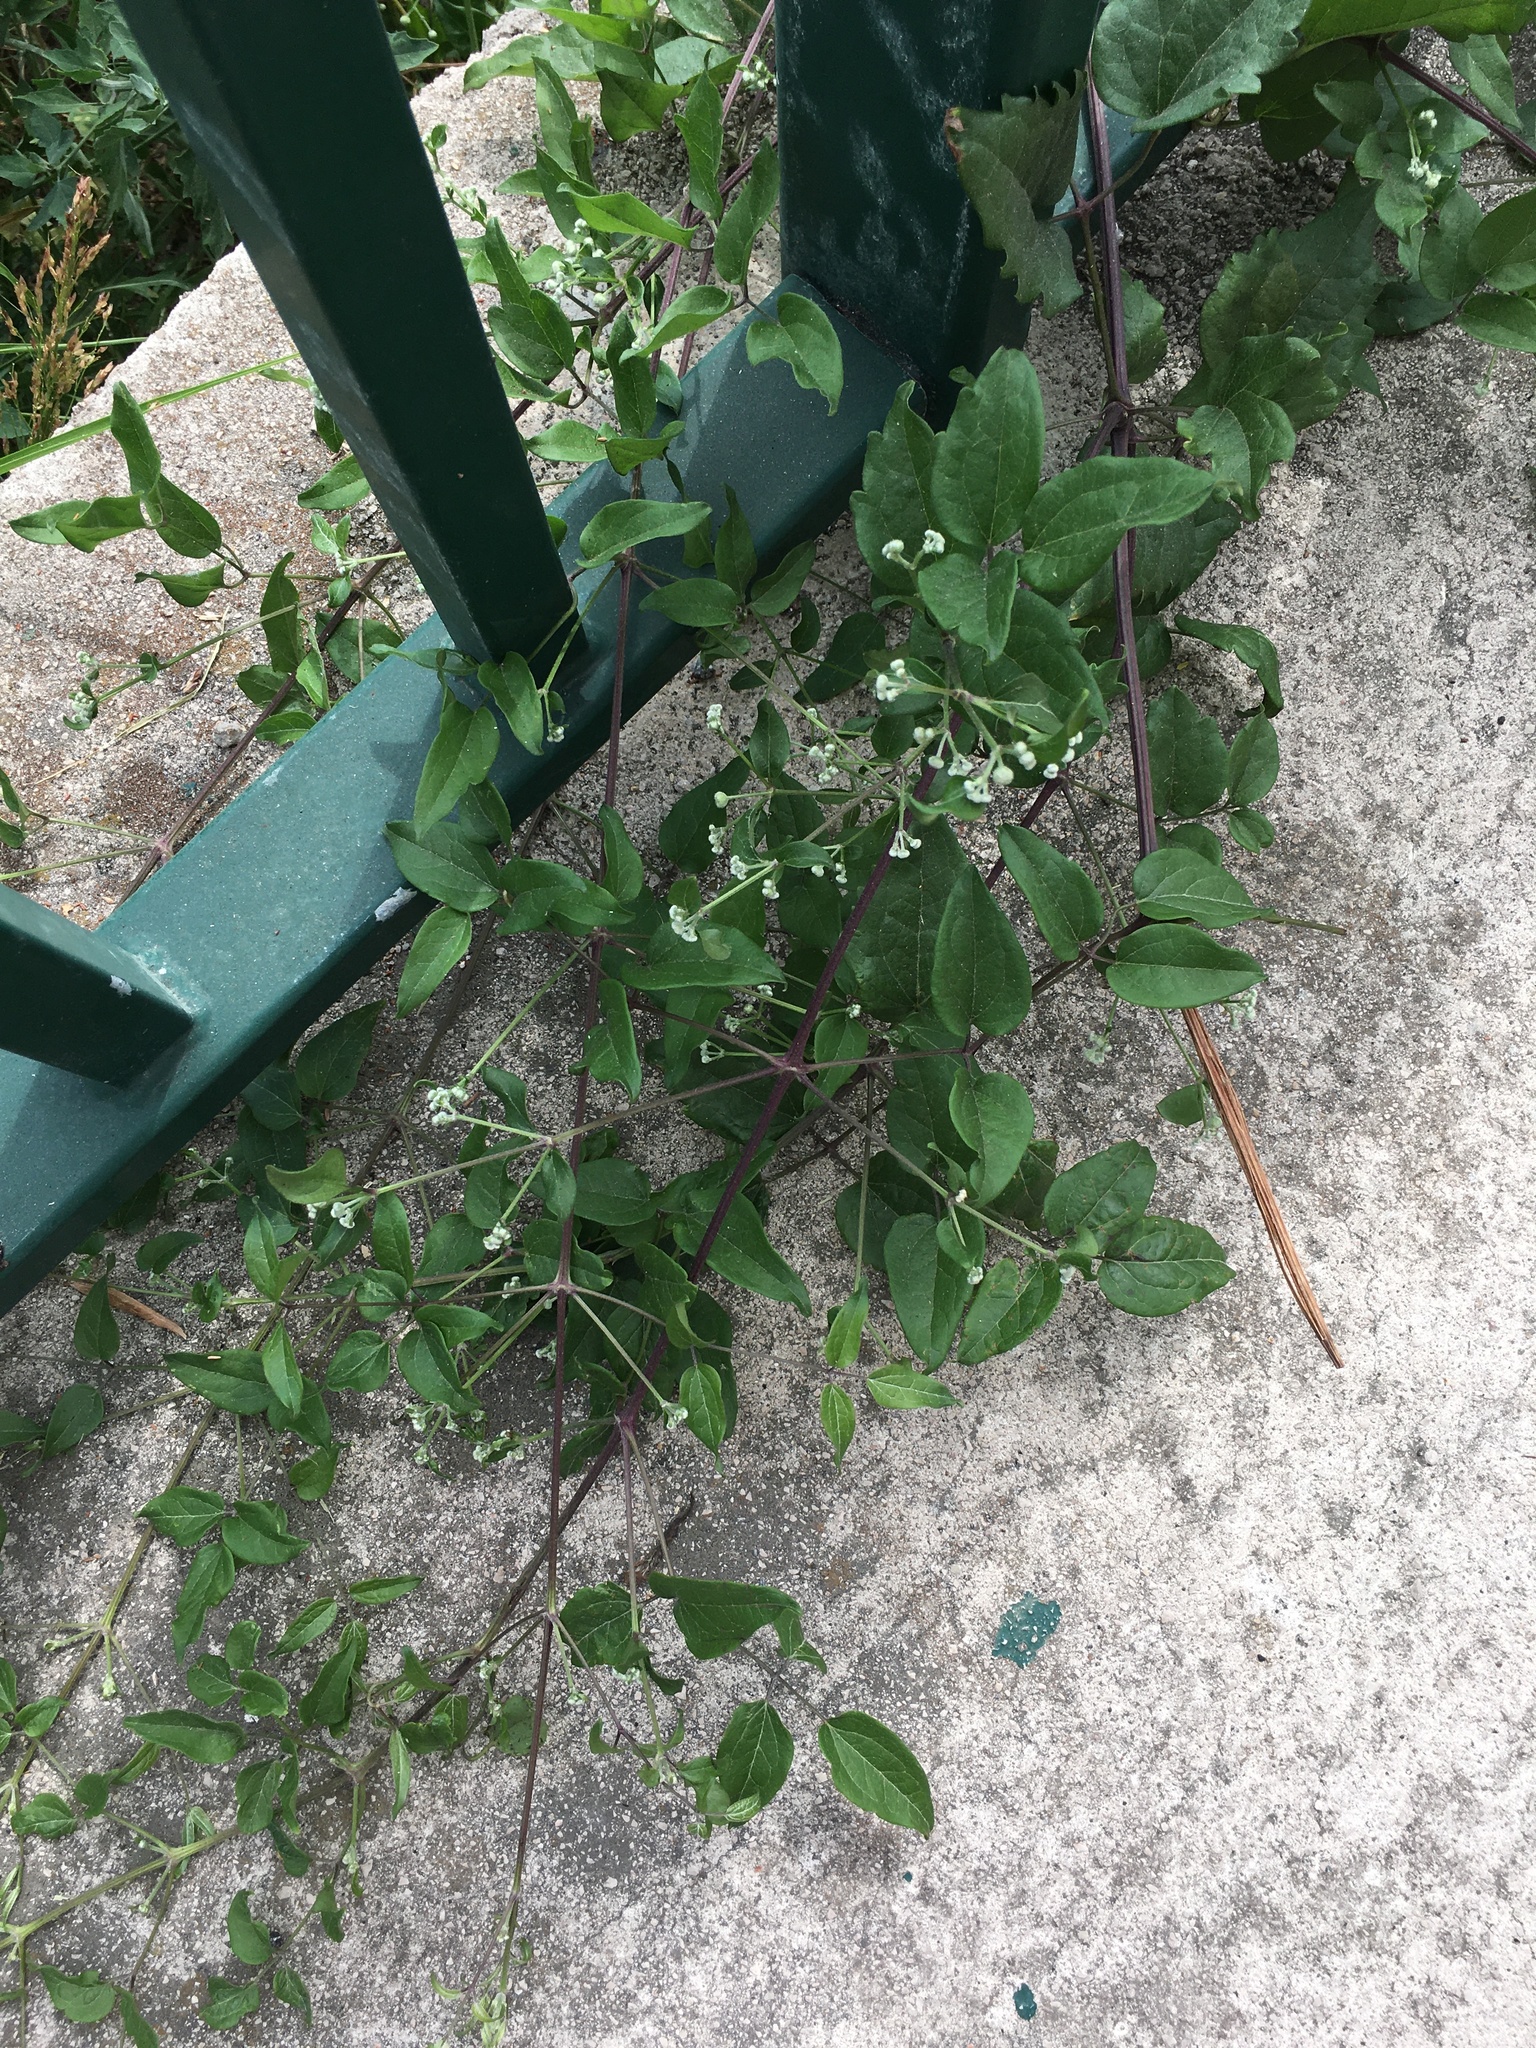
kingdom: Plantae
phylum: Tracheophyta
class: Magnoliopsida
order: Ranunculales
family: Ranunculaceae
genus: Clematis
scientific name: Clematis vitalba
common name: Evergreen clematis
